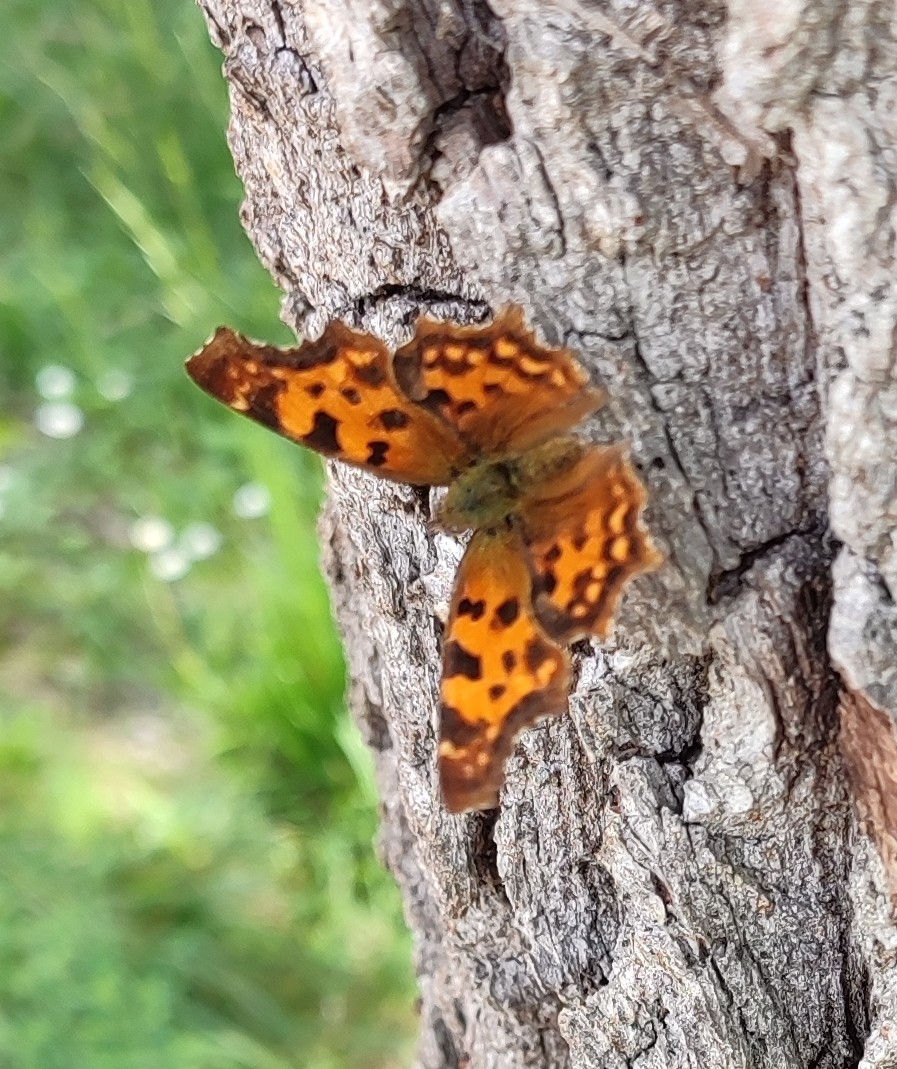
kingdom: Animalia
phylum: Arthropoda
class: Insecta
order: Lepidoptera
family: Nymphalidae
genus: Polygonia
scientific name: Polygonia c-album
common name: Comma
